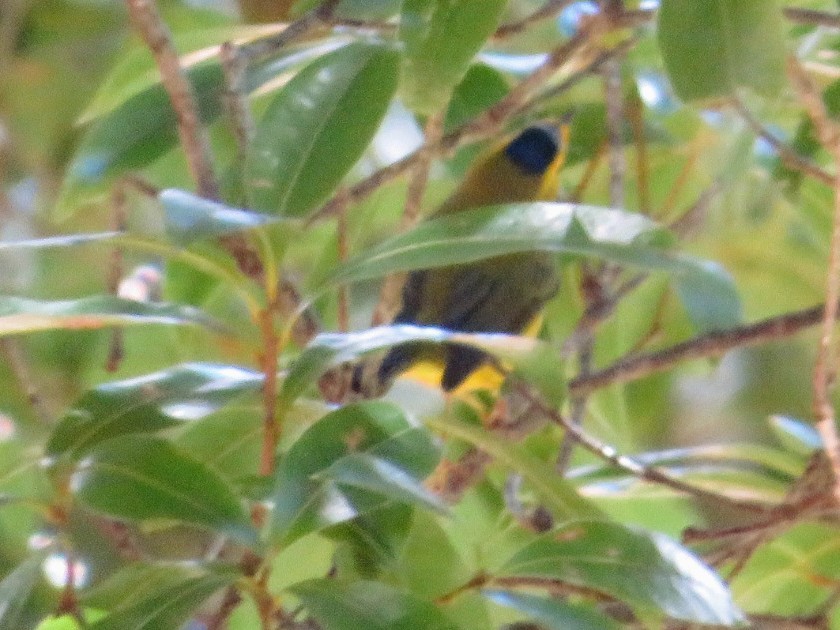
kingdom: Animalia
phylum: Chordata
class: Aves
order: Passeriformes
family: Parulidae
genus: Cardellina
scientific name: Cardellina pusilla
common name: Wilson's warbler
